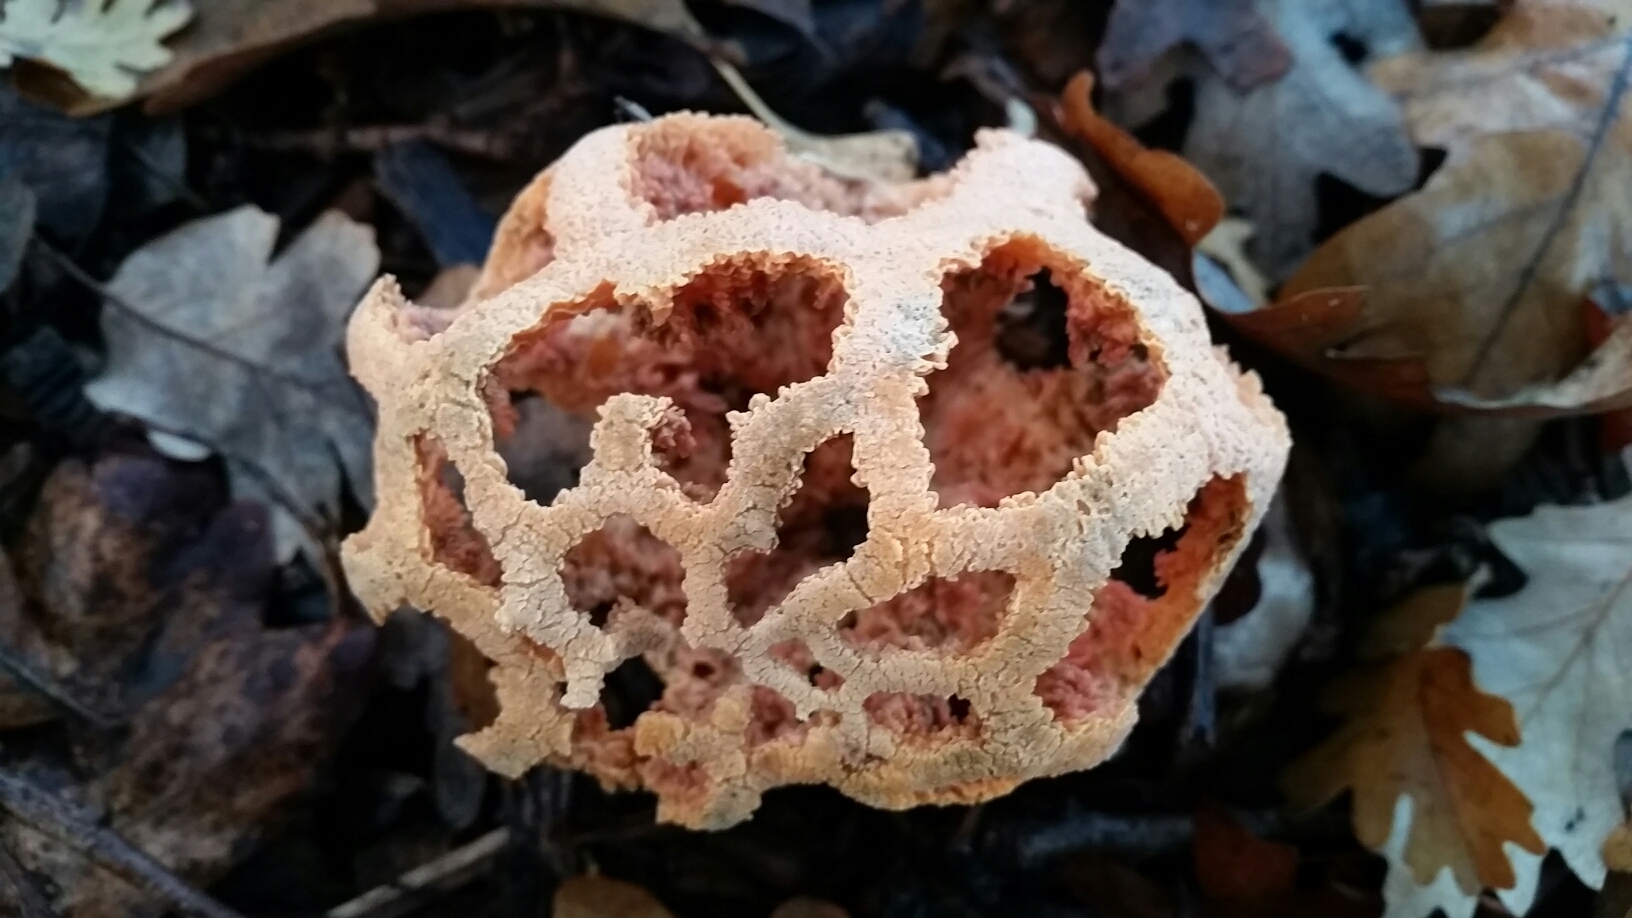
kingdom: Fungi
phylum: Basidiomycota
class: Agaricomycetes
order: Phallales
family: Phallaceae
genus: Clathrus
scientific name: Clathrus ruber
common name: Red cage
